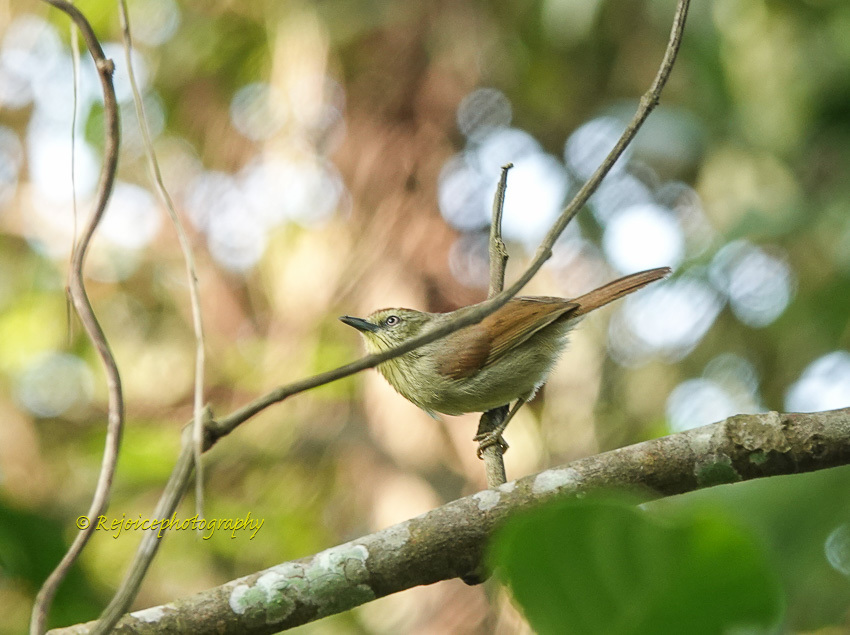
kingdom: Animalia
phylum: Chordata
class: Aves
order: Passeriformes
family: Timaliidae
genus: Macronus
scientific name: Macronus gularis
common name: Striped tit-babbler
